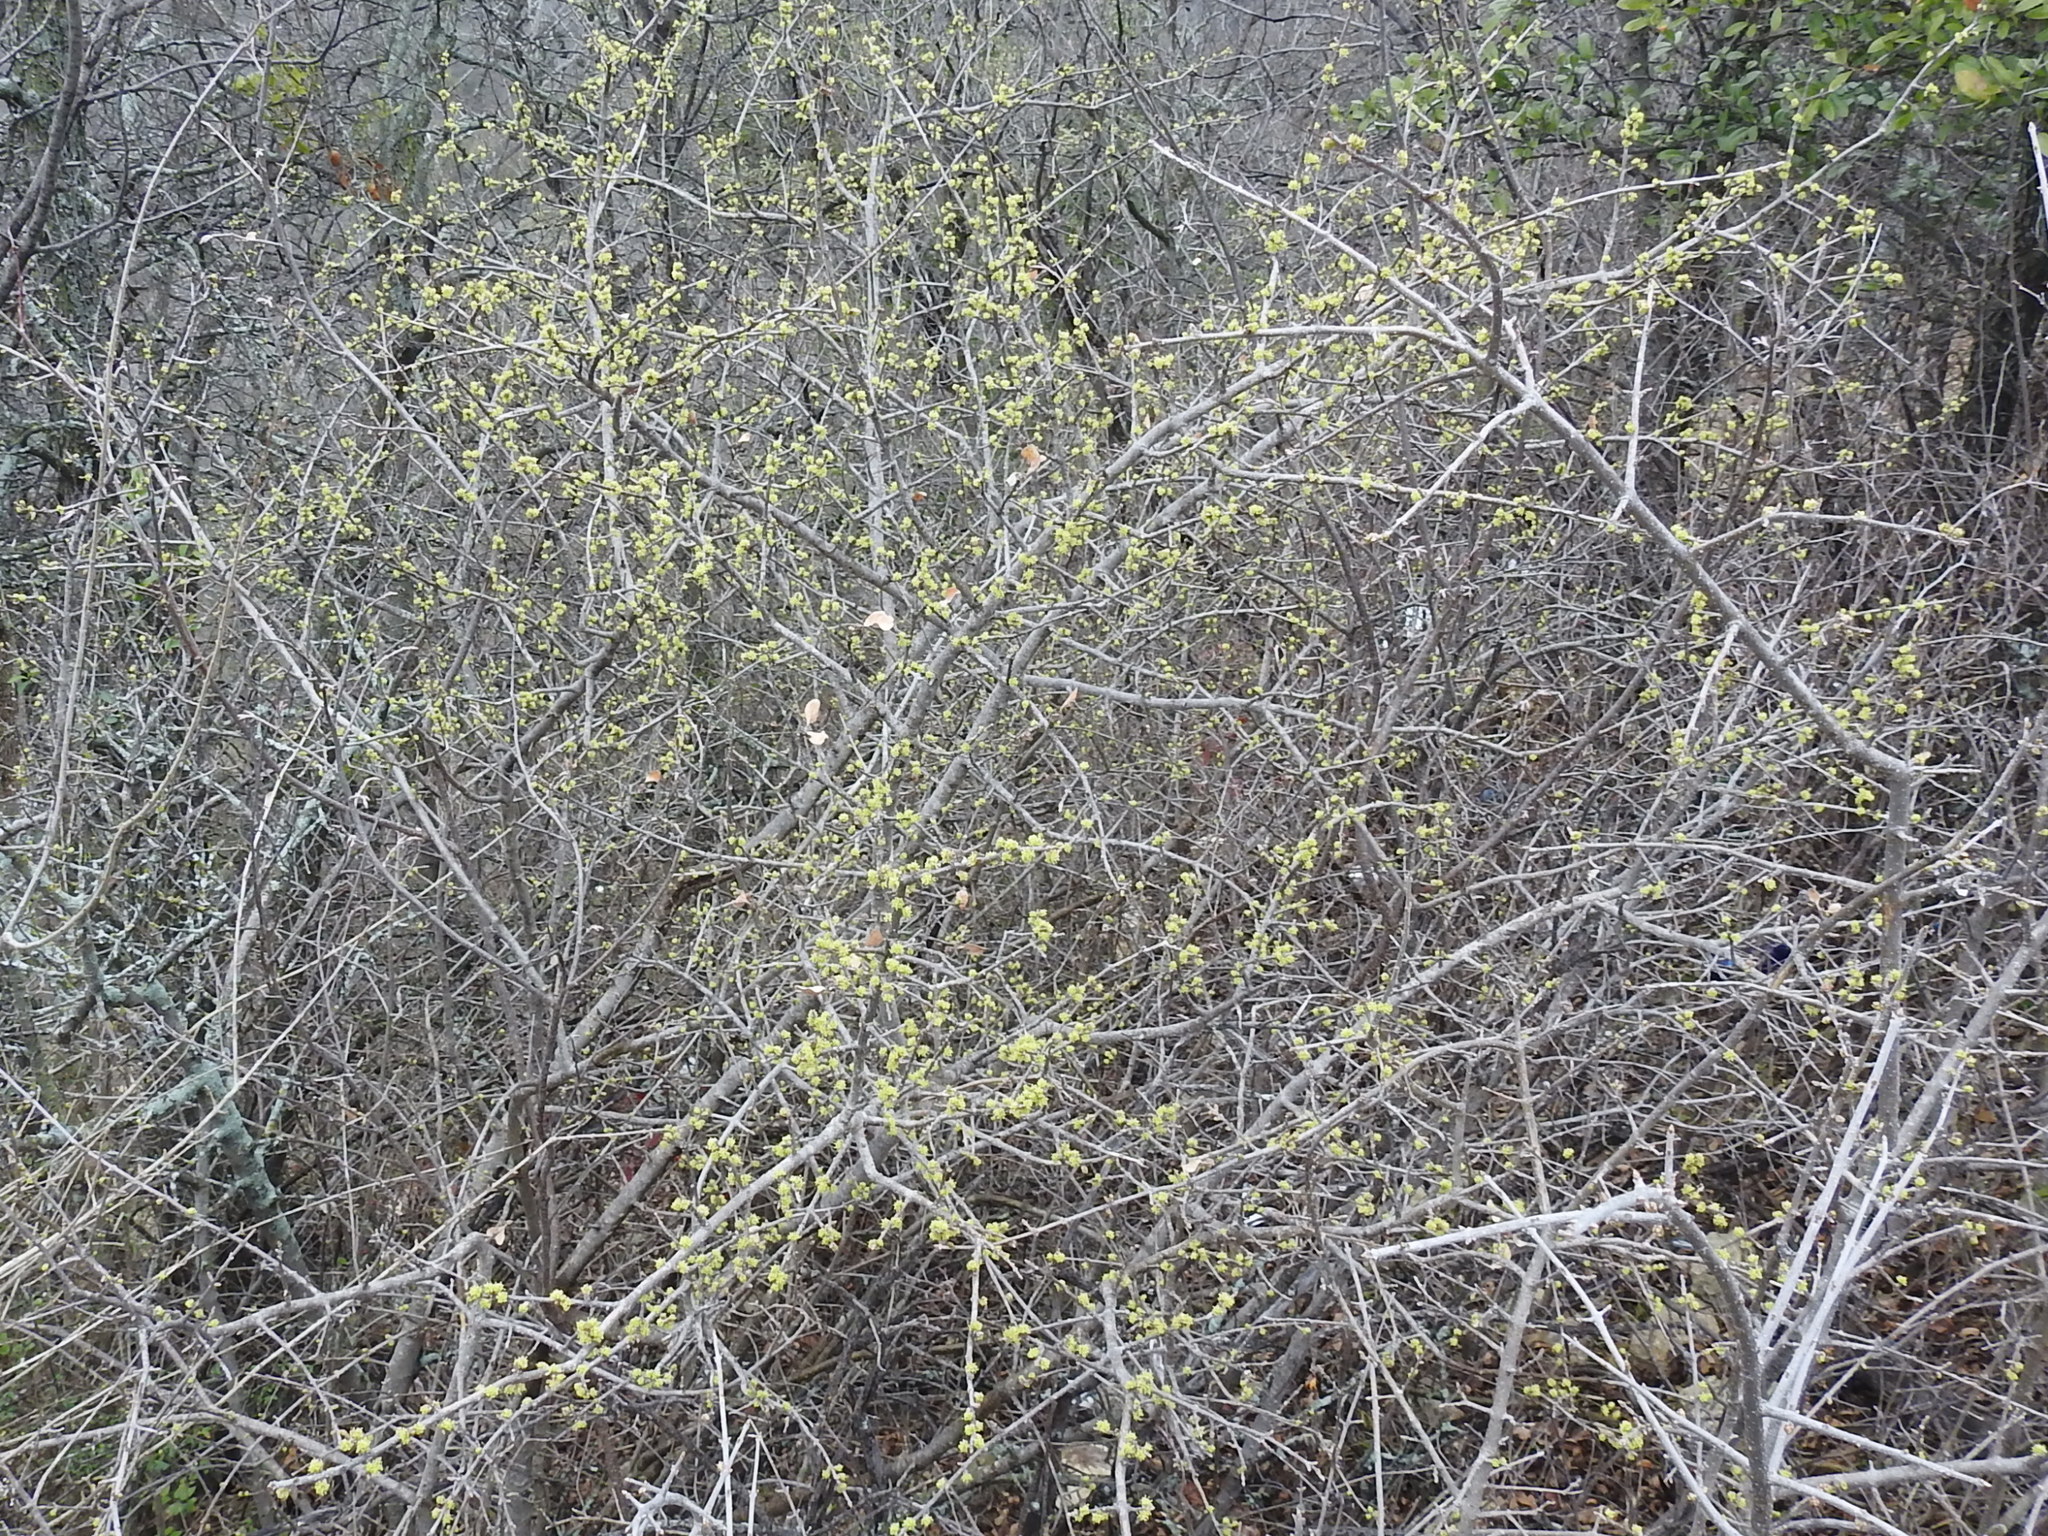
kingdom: Plantae
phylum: Tracheophyta
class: Magnoliopsida
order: Lamiales
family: Oleaceae
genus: Forestiera
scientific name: Forestiera pubescens
